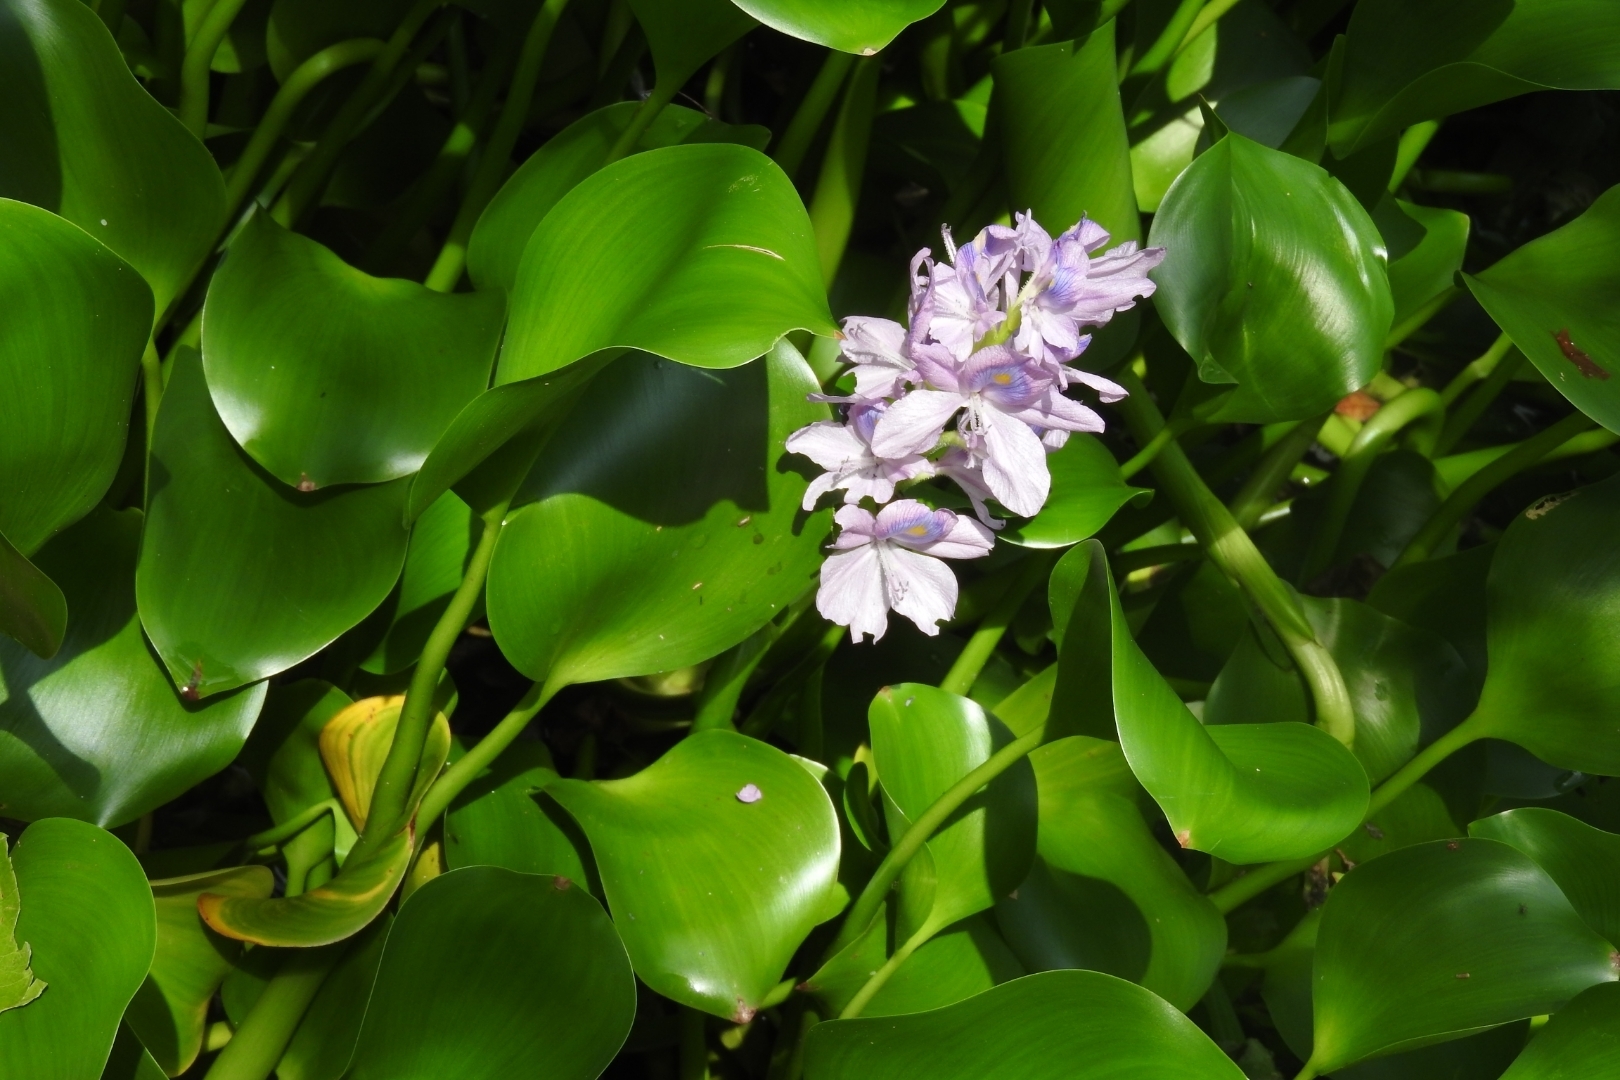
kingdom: Plantae
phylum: Tracheophyta
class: Liliopsida
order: Commelinales
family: Pontederiaceae
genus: Pontederia
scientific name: Pontederia crassipes
